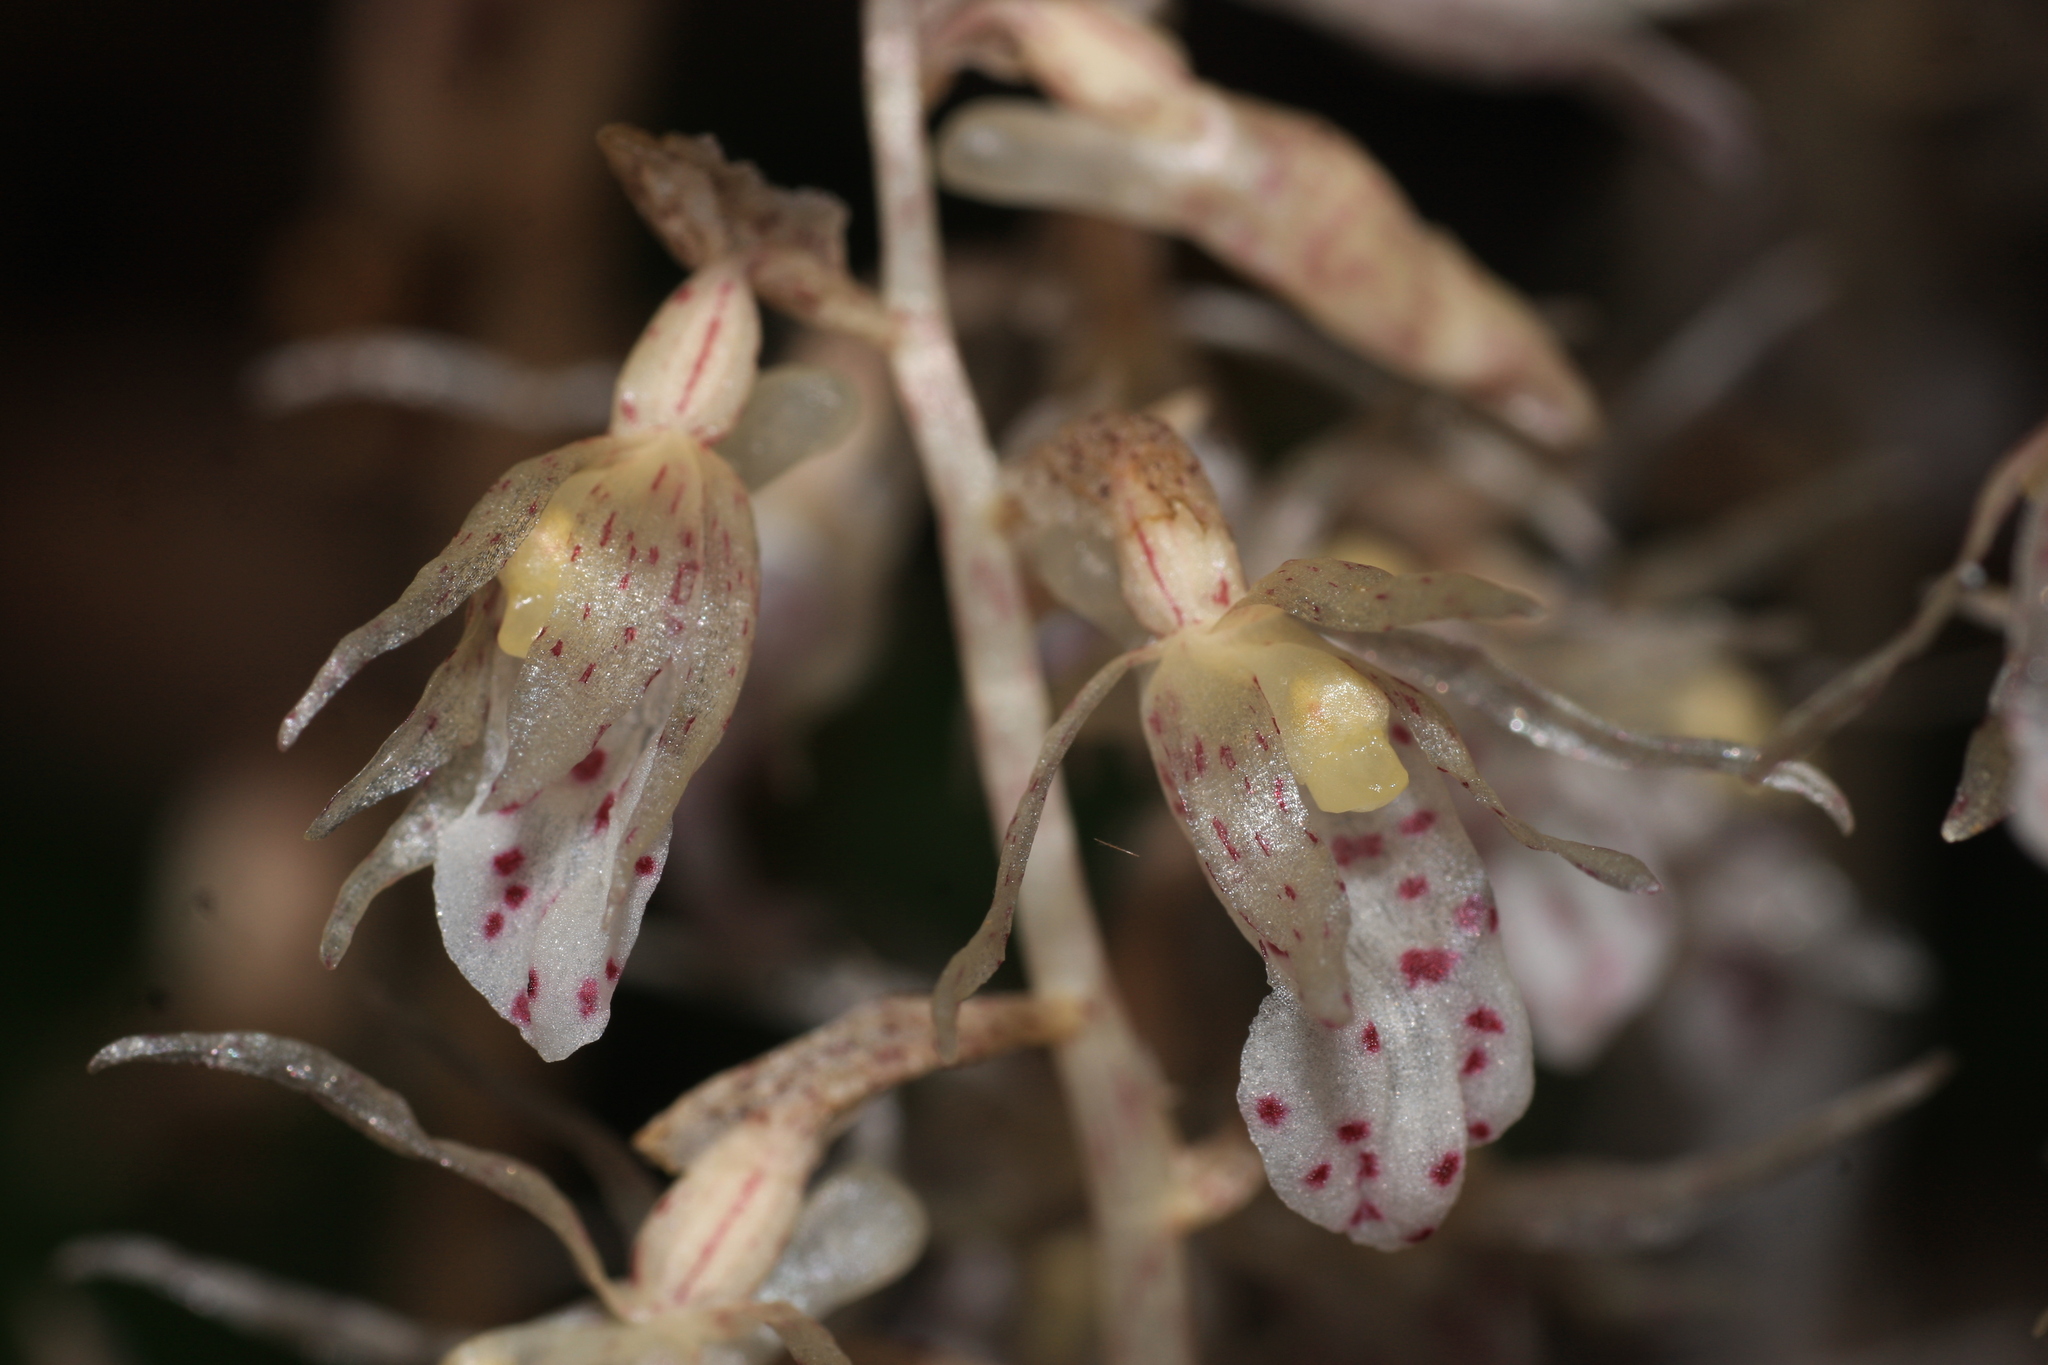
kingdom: Plantae
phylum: Tracheophyta
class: Liliopsida
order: Asparagales
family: Orchidaceae
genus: Epipogium
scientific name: Epipogium roseum
